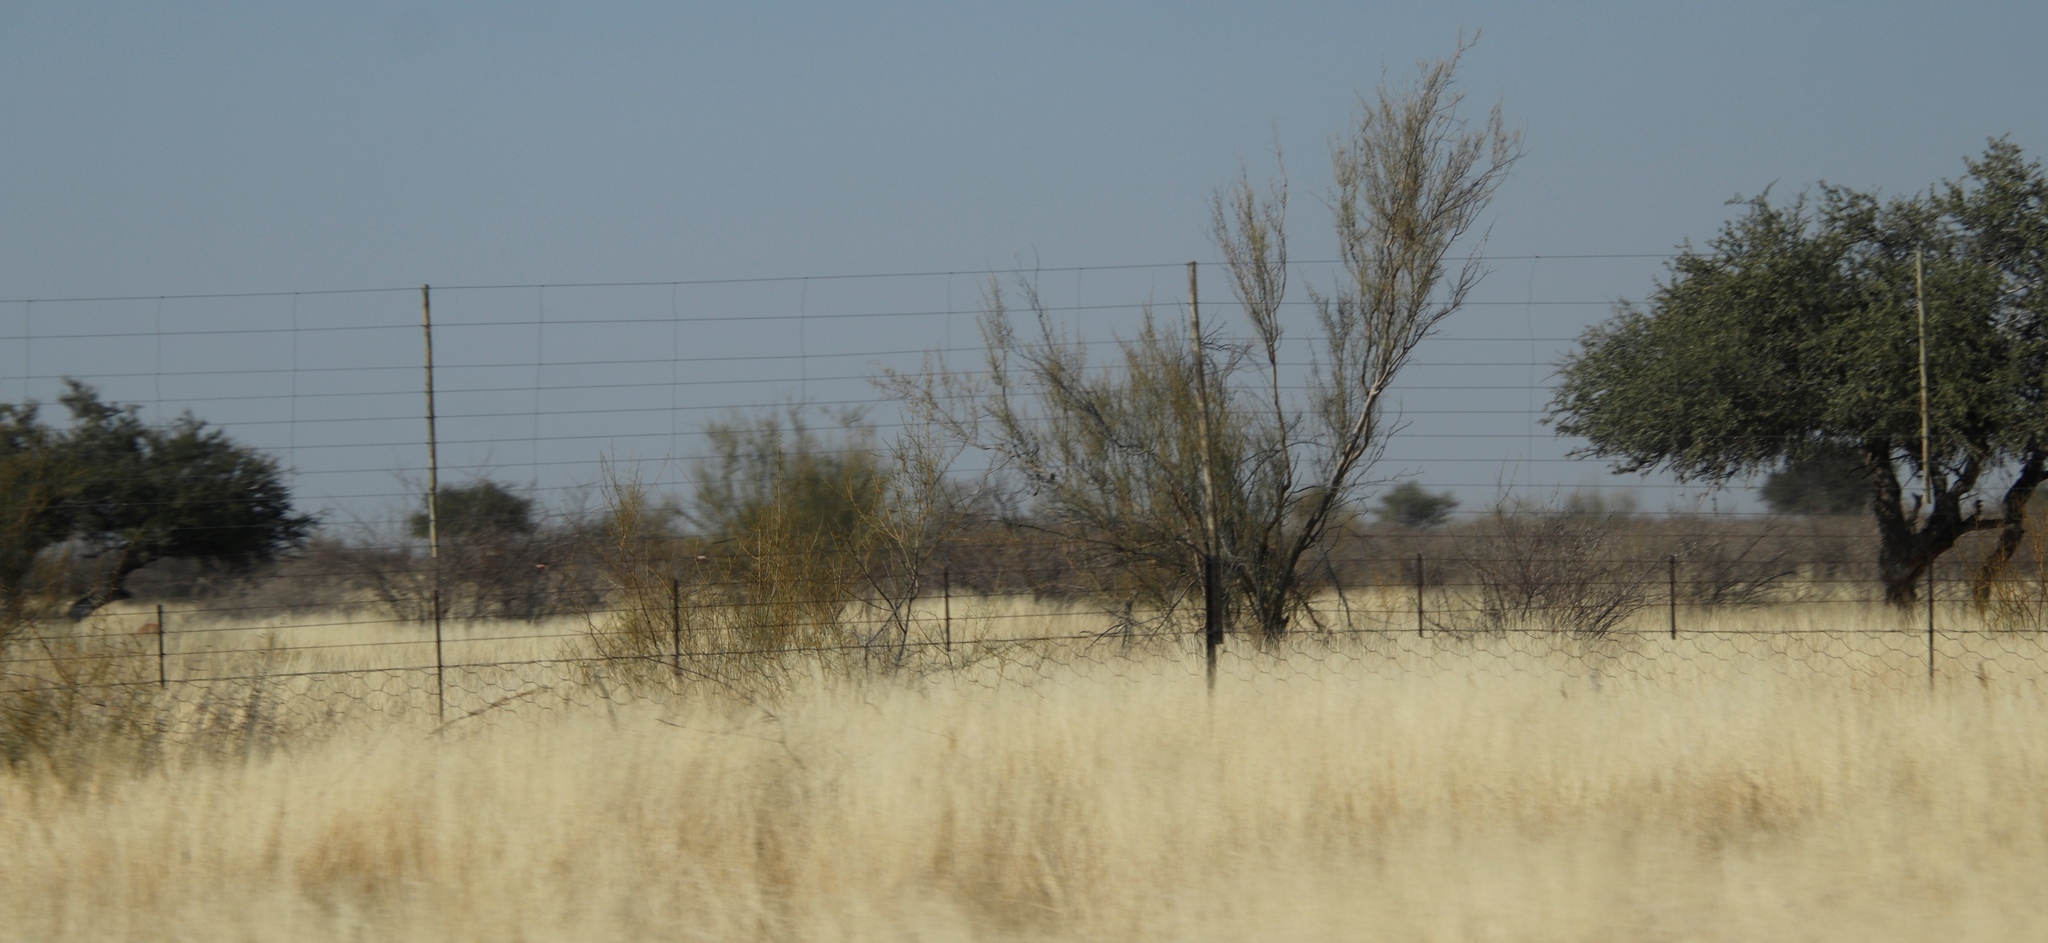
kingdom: Plantae
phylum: Tracheophyta
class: Magnoliopsida
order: Fabales
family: Fabaceae
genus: Parkinsonia
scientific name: Parkinsonia africana
